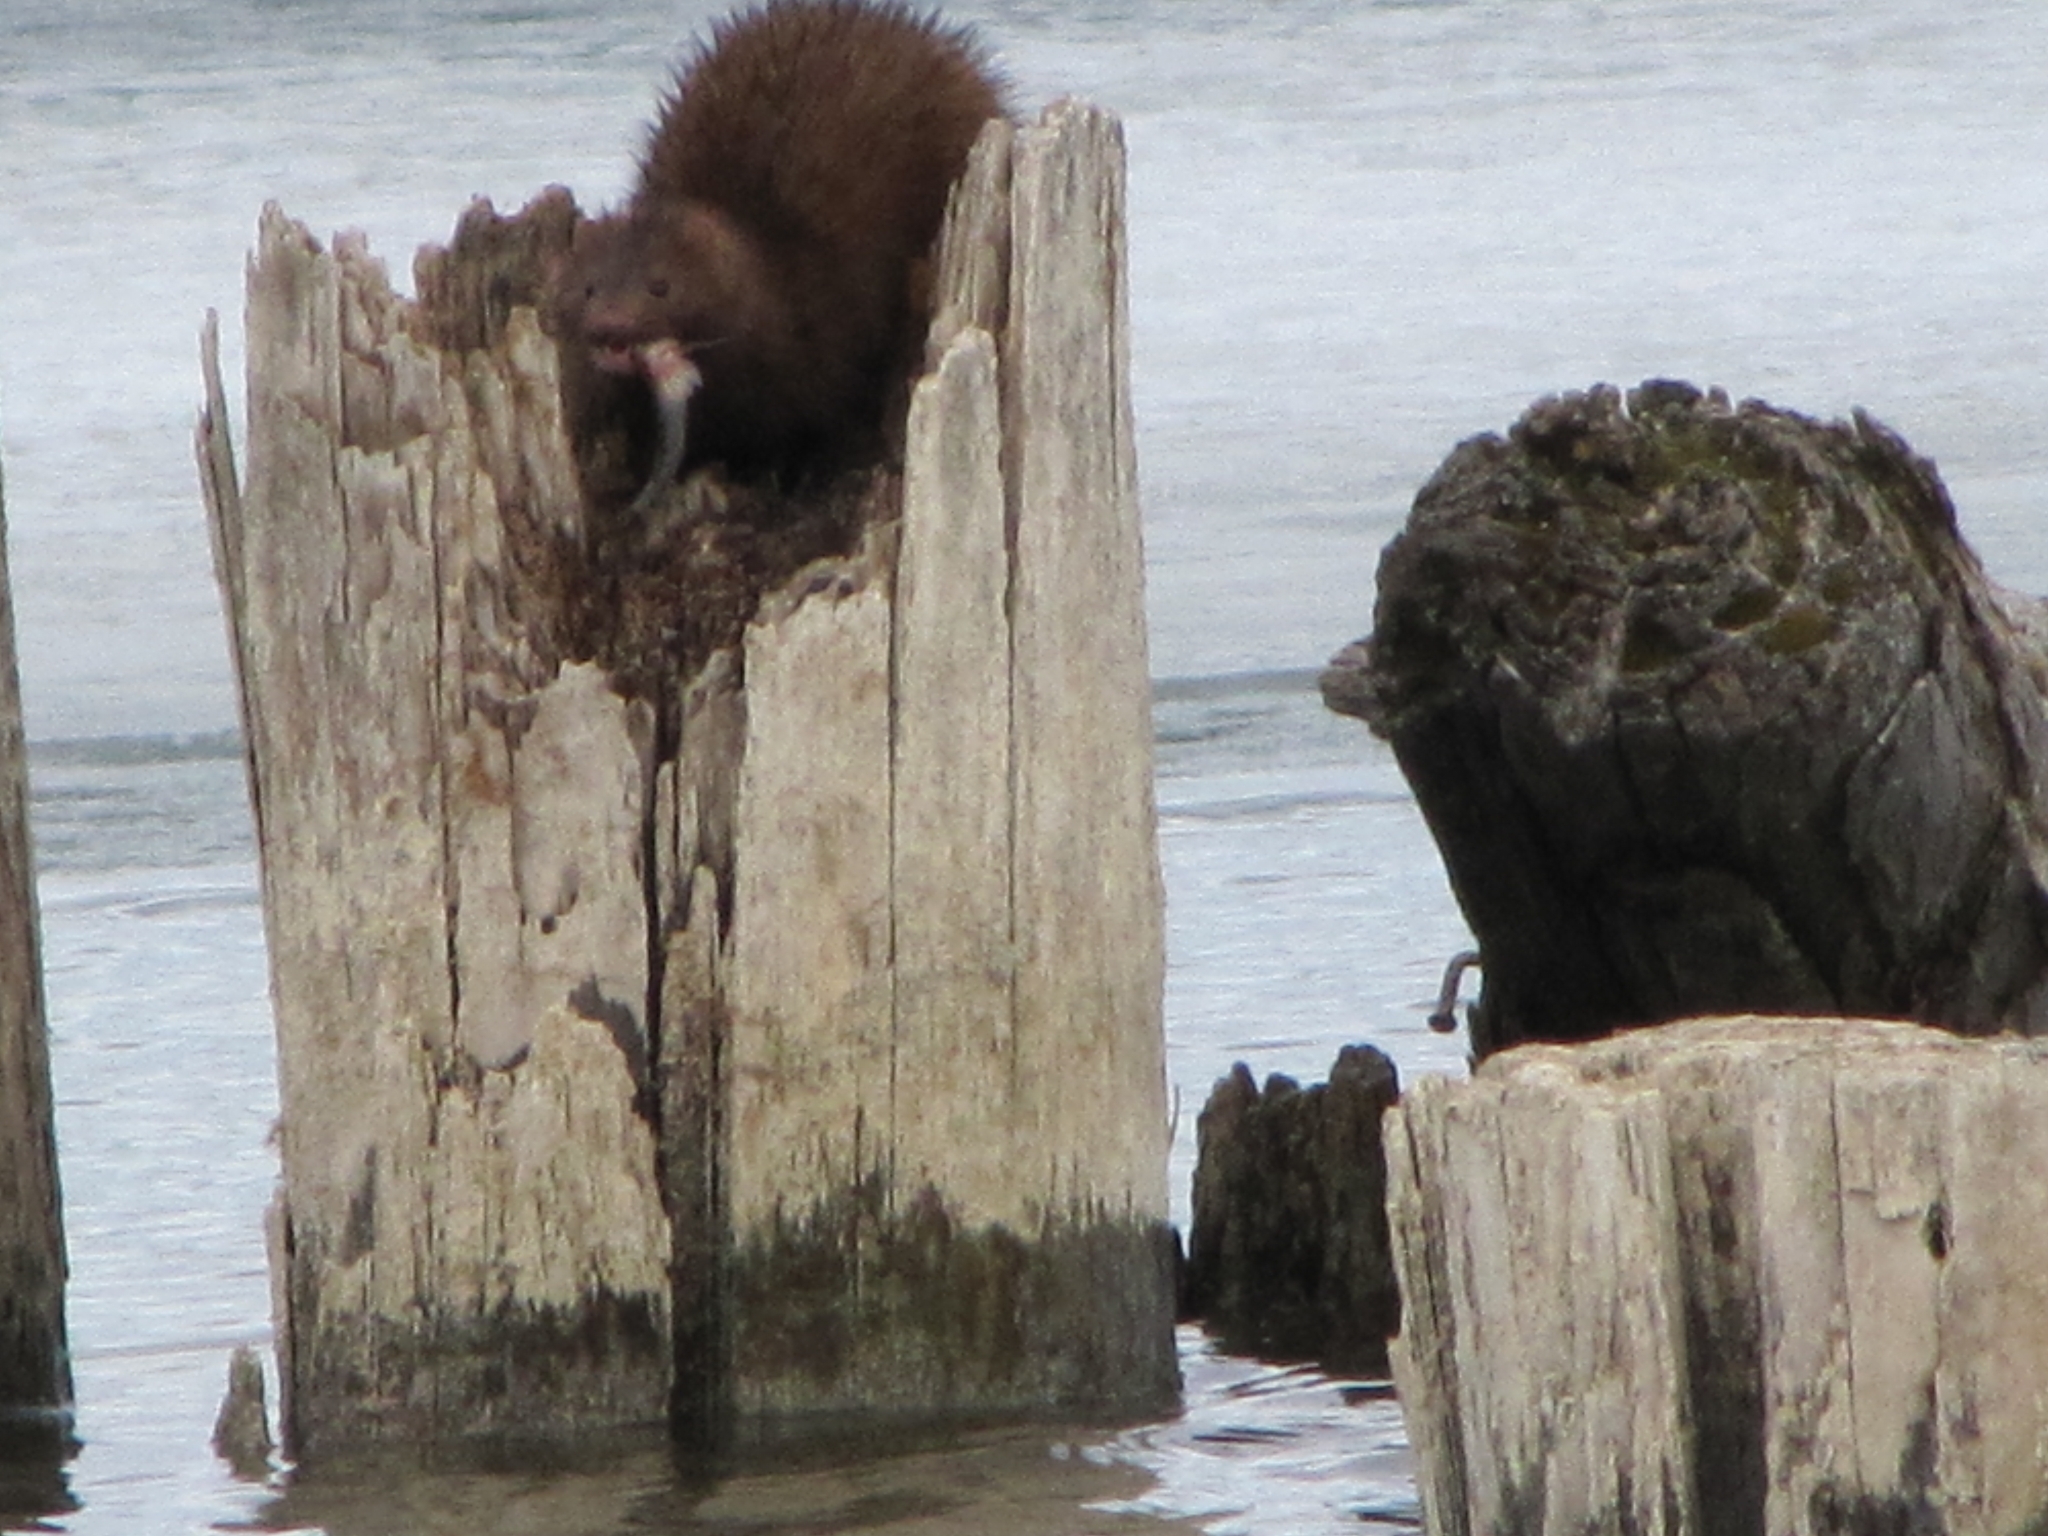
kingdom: Animalia
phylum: Chordata
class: Mammalia
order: Carnivora
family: Mustelidae
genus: Mustela
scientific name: Mustela
